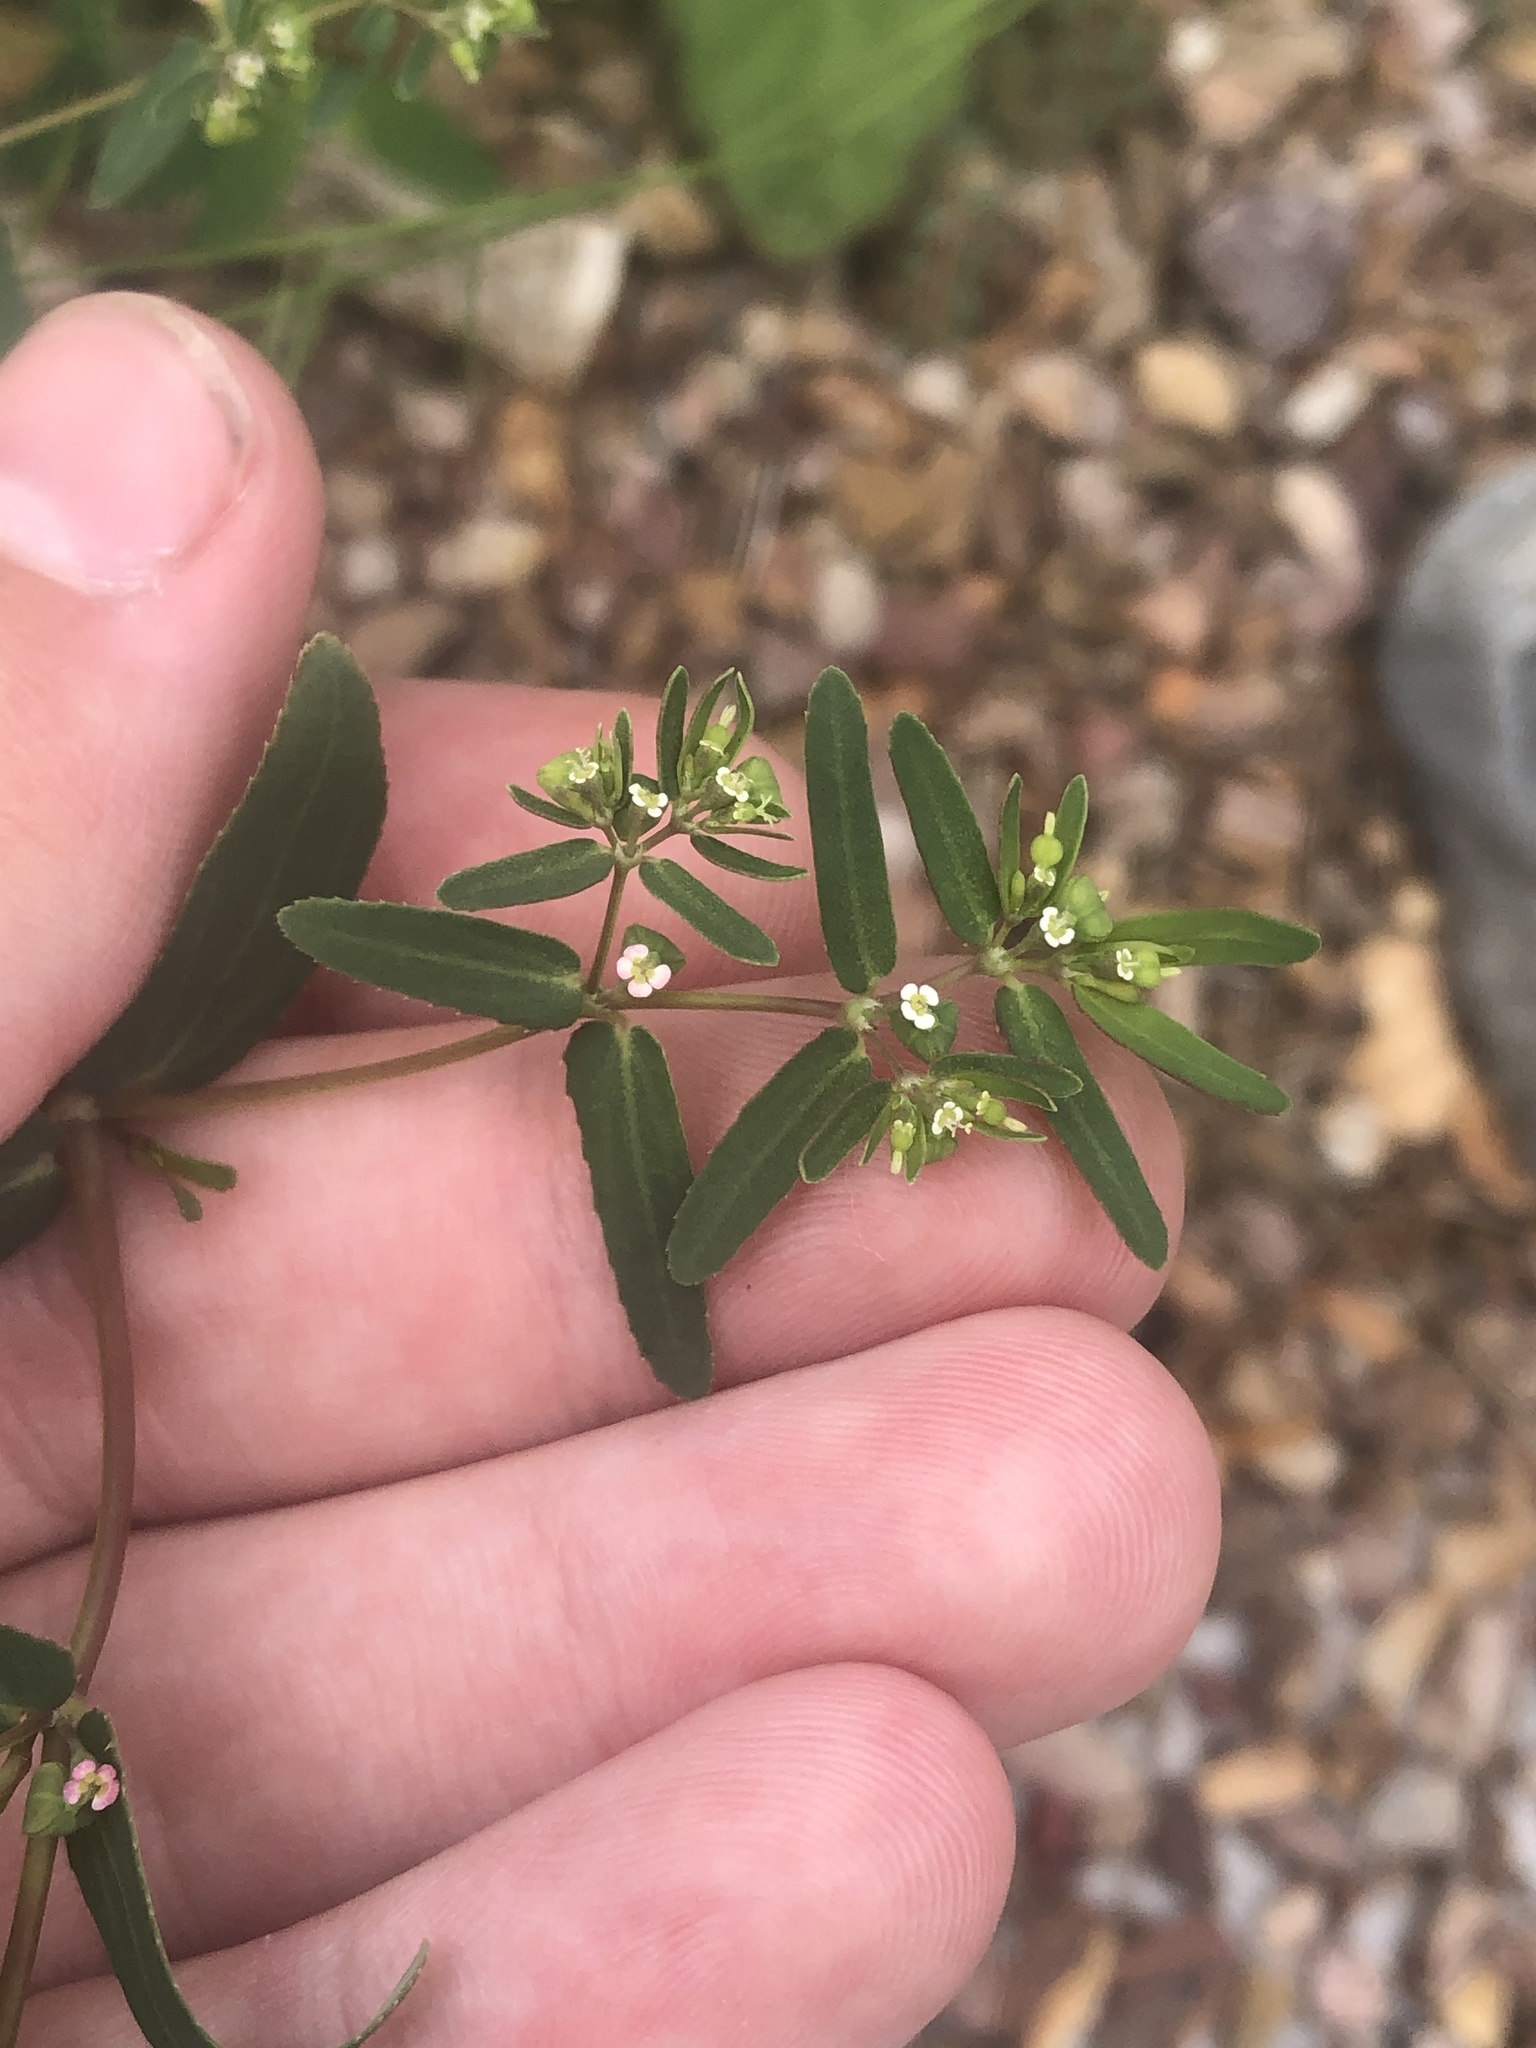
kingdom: Plantae
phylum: Tracheophyta
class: Magnoliopsida
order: Malpighiales
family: Euphorbiaceae
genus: Euphorbia
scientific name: Euphorbia hyssopifolia
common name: Hyssopleaf sandmat
